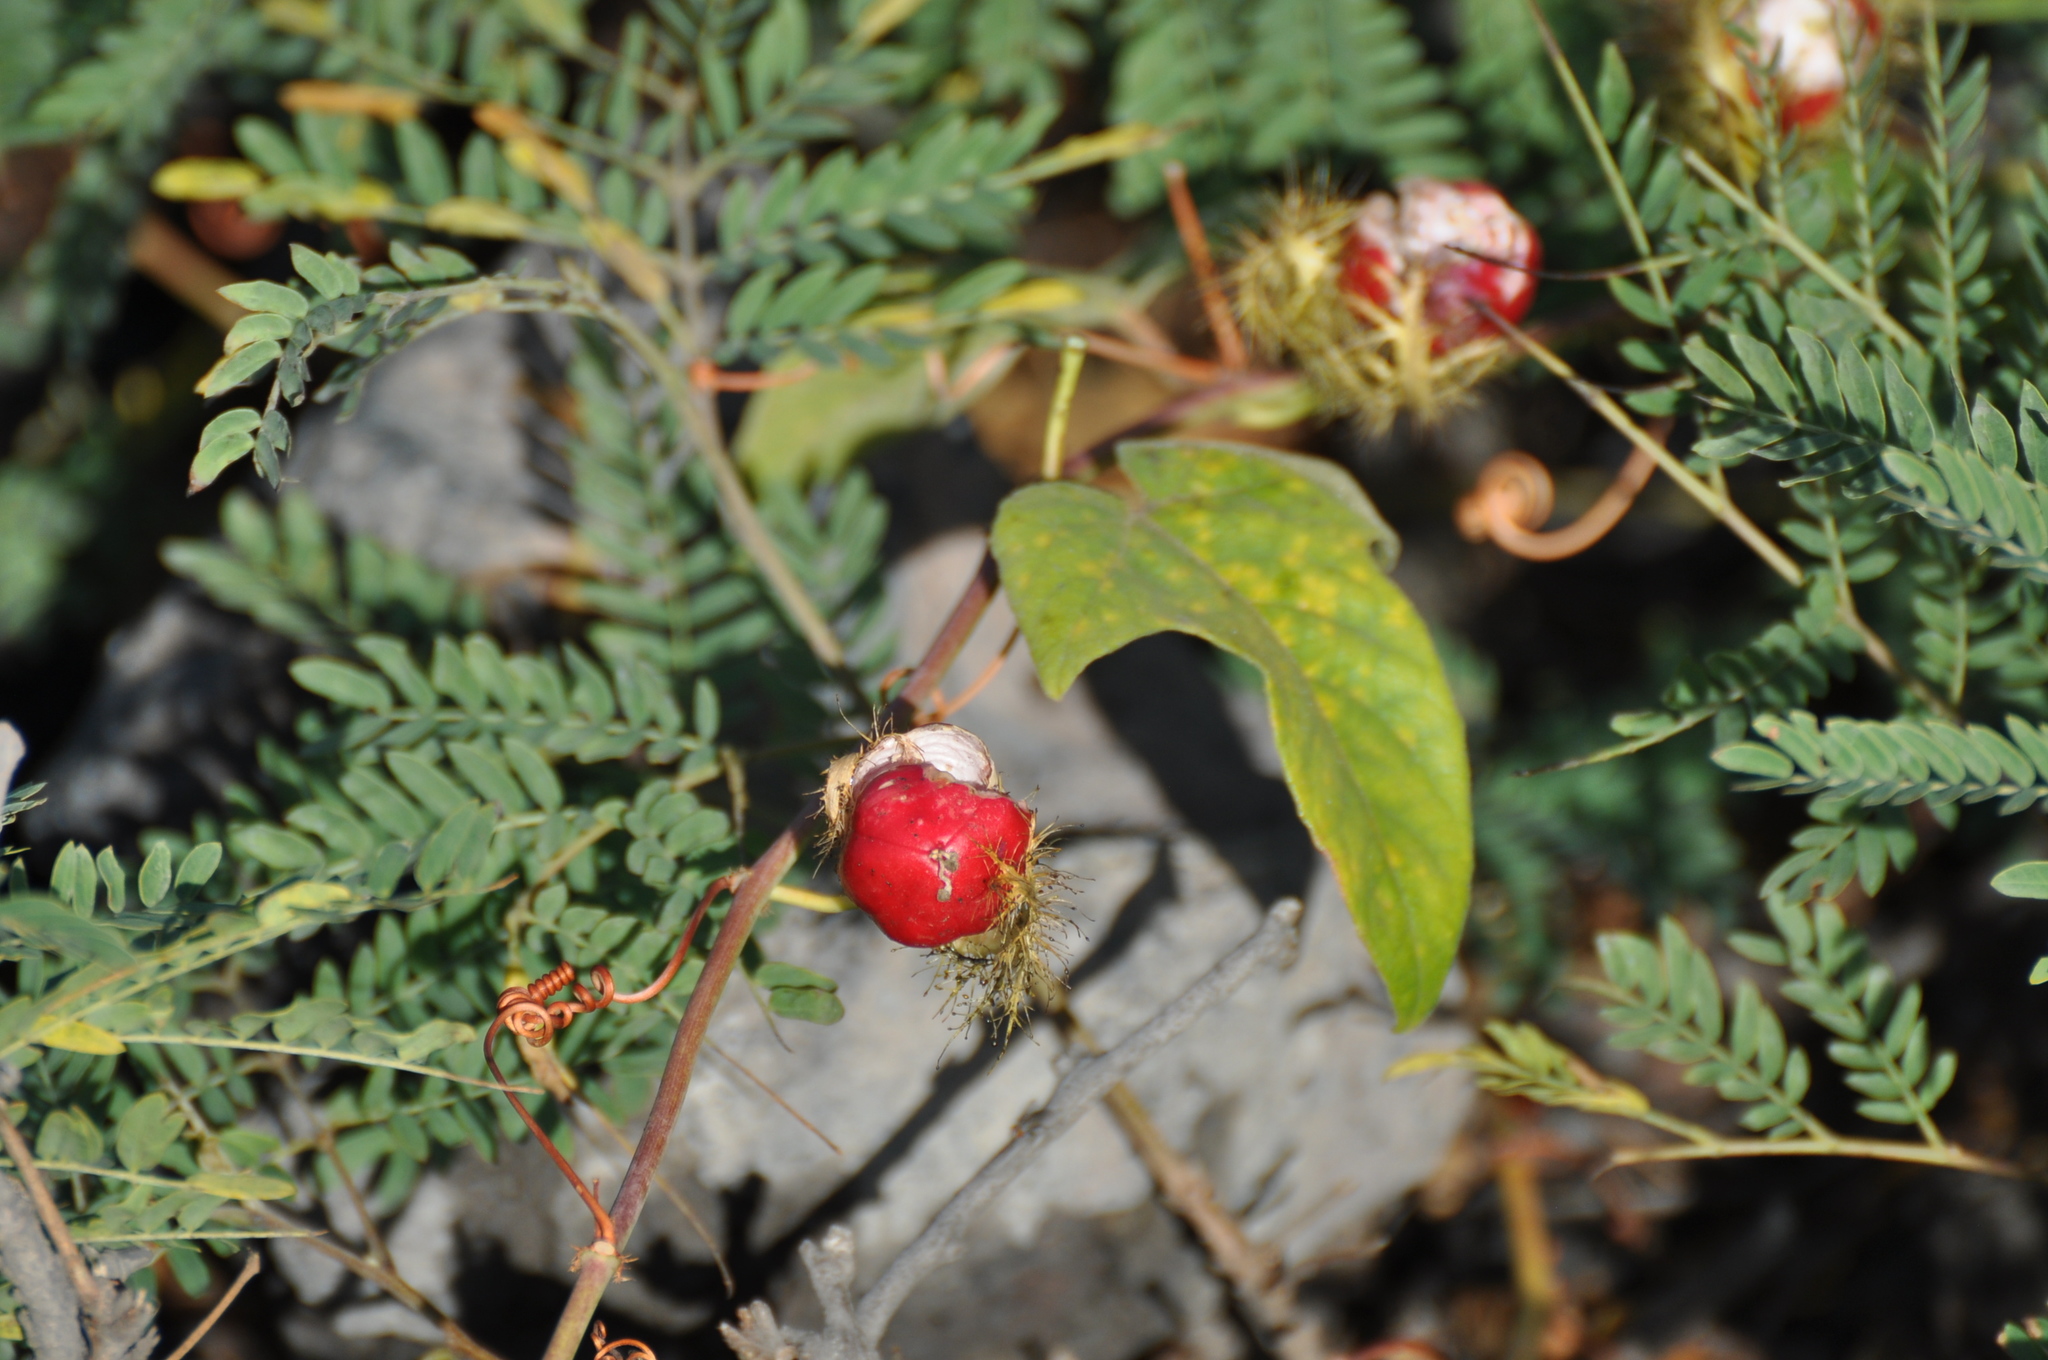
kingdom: Plantae
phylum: Tracheophyta
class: Magnoliopsida
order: Malpighiales
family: Passifloraceae
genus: Passiflora
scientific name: Passiflora ciliata
